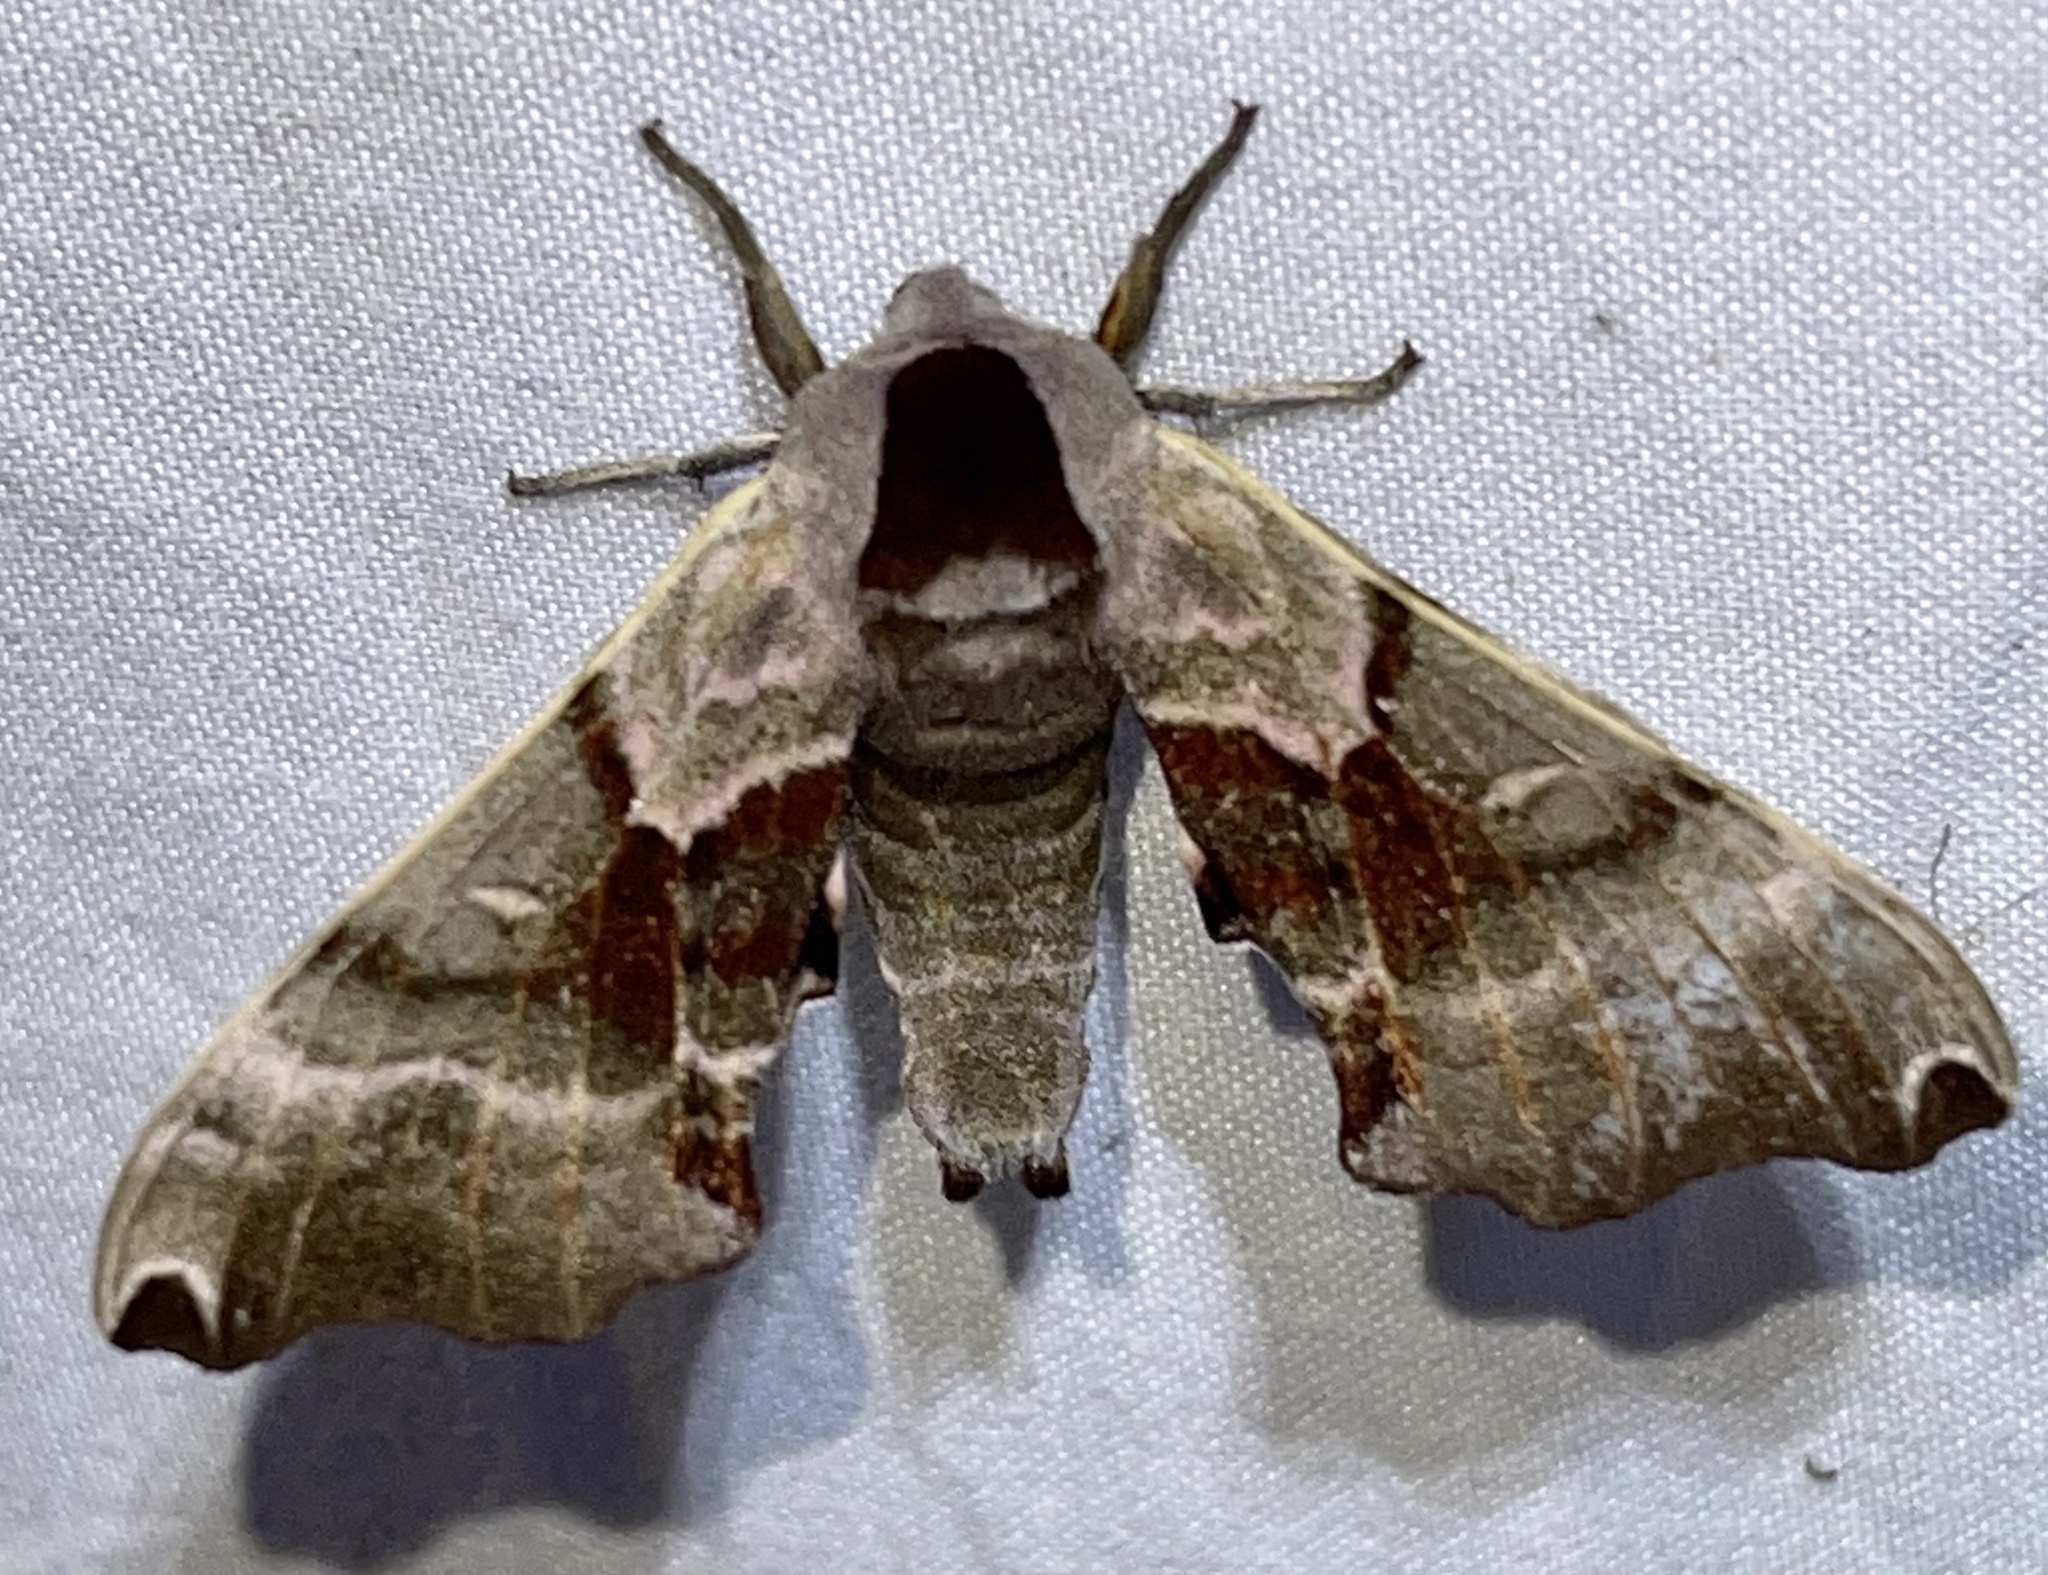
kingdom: Animalia
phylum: Arthropoda
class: Insecta
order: Lepidoptera
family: Sphingidae
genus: Smerinthus
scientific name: Smerinthus jamaicensis
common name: Twin spotted sphinx
